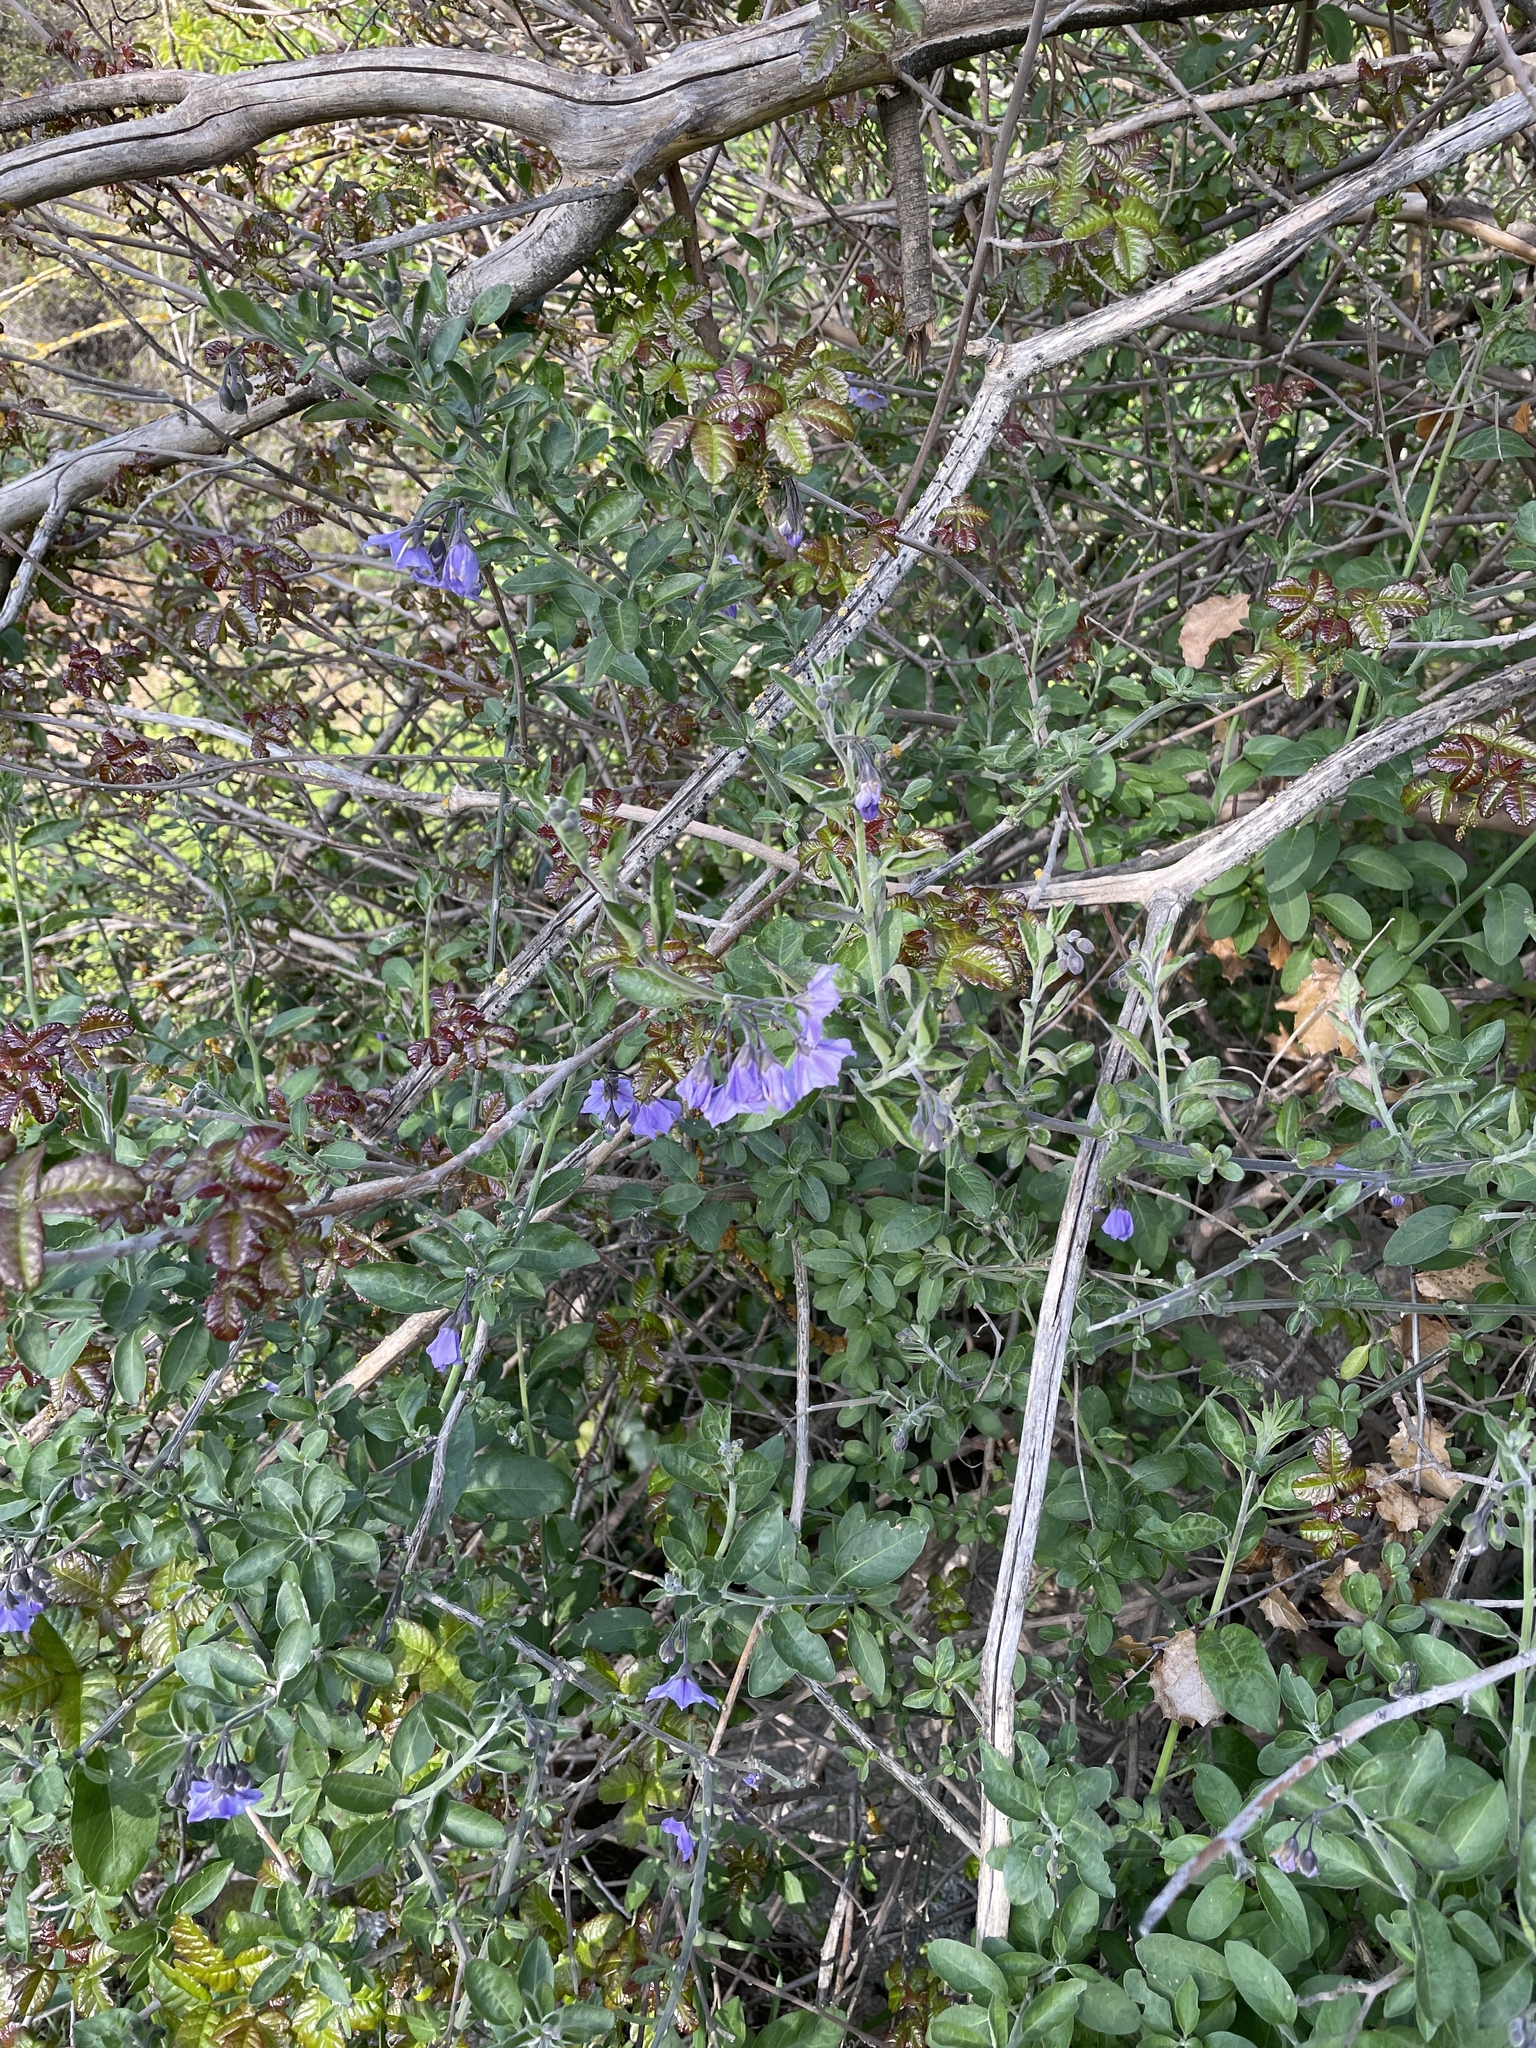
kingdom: Plantae
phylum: Tracheophyta
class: Magnoliopsida
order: Solanales
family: Solanaceae
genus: Solanum
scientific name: Solanum umbelliferum
